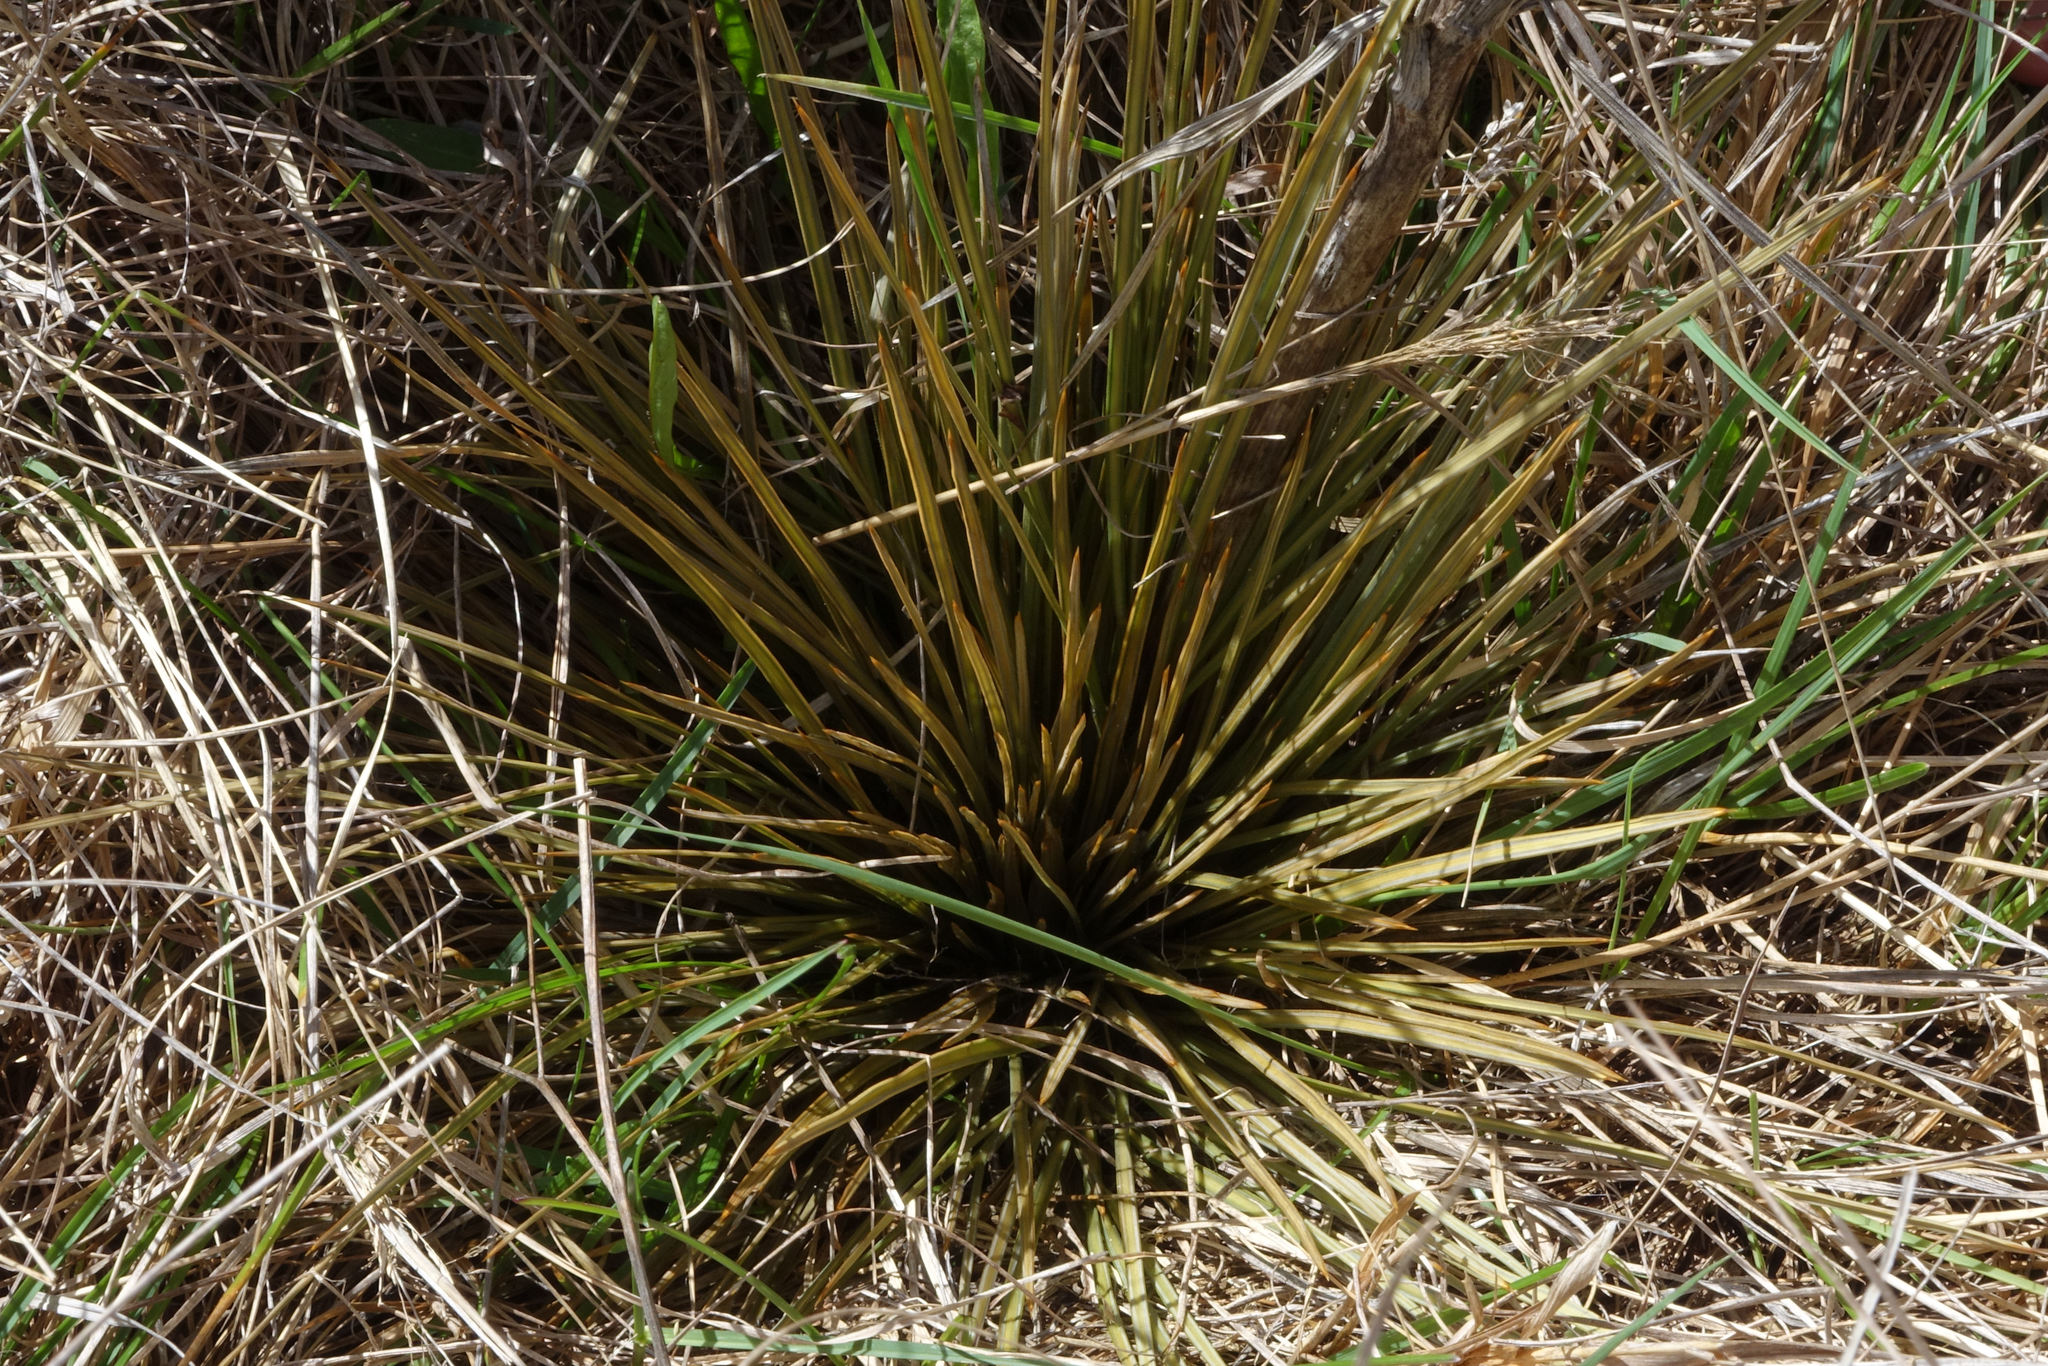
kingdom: Plantae
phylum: Tracheophyta
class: Magnoliopsida
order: Apiales
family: Apiaceae
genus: Aciphylla
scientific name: Aciphylla subflabellata
